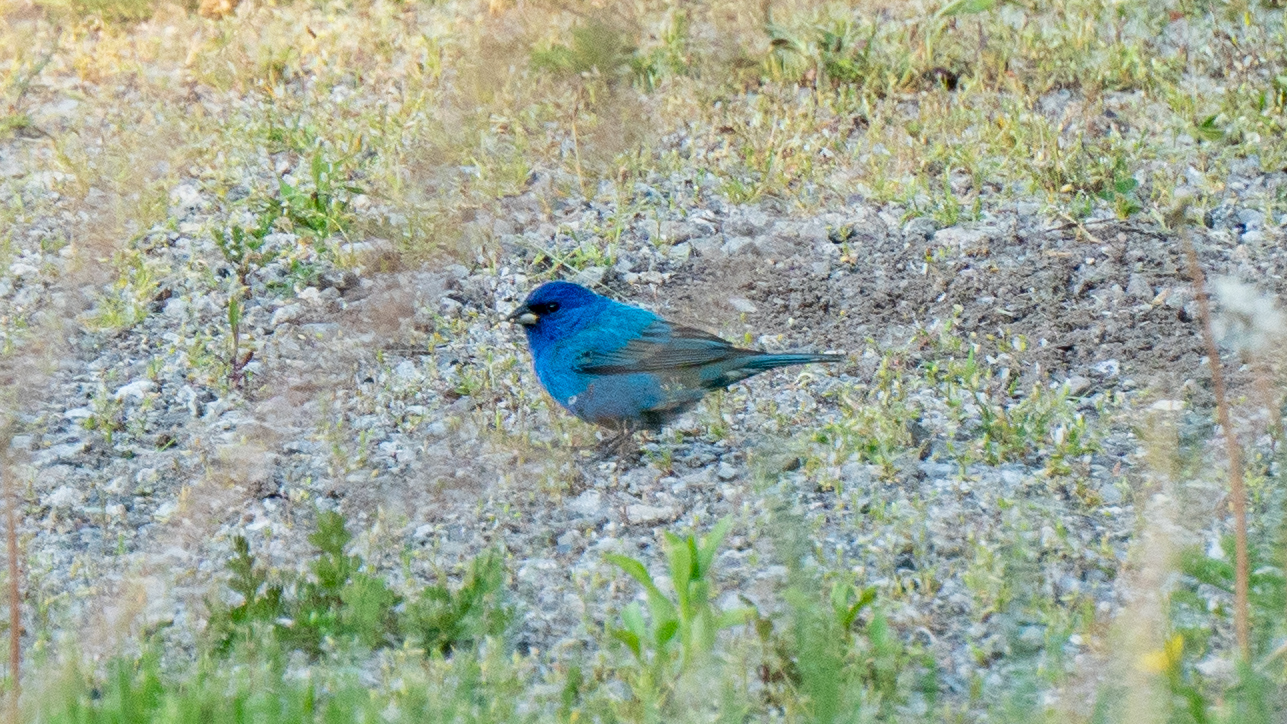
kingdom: Animalia
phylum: Chordata
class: Aves
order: Passeriformes
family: Cardinalidae
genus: Passerina
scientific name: Passerina cyanea
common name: Indigo bunting
